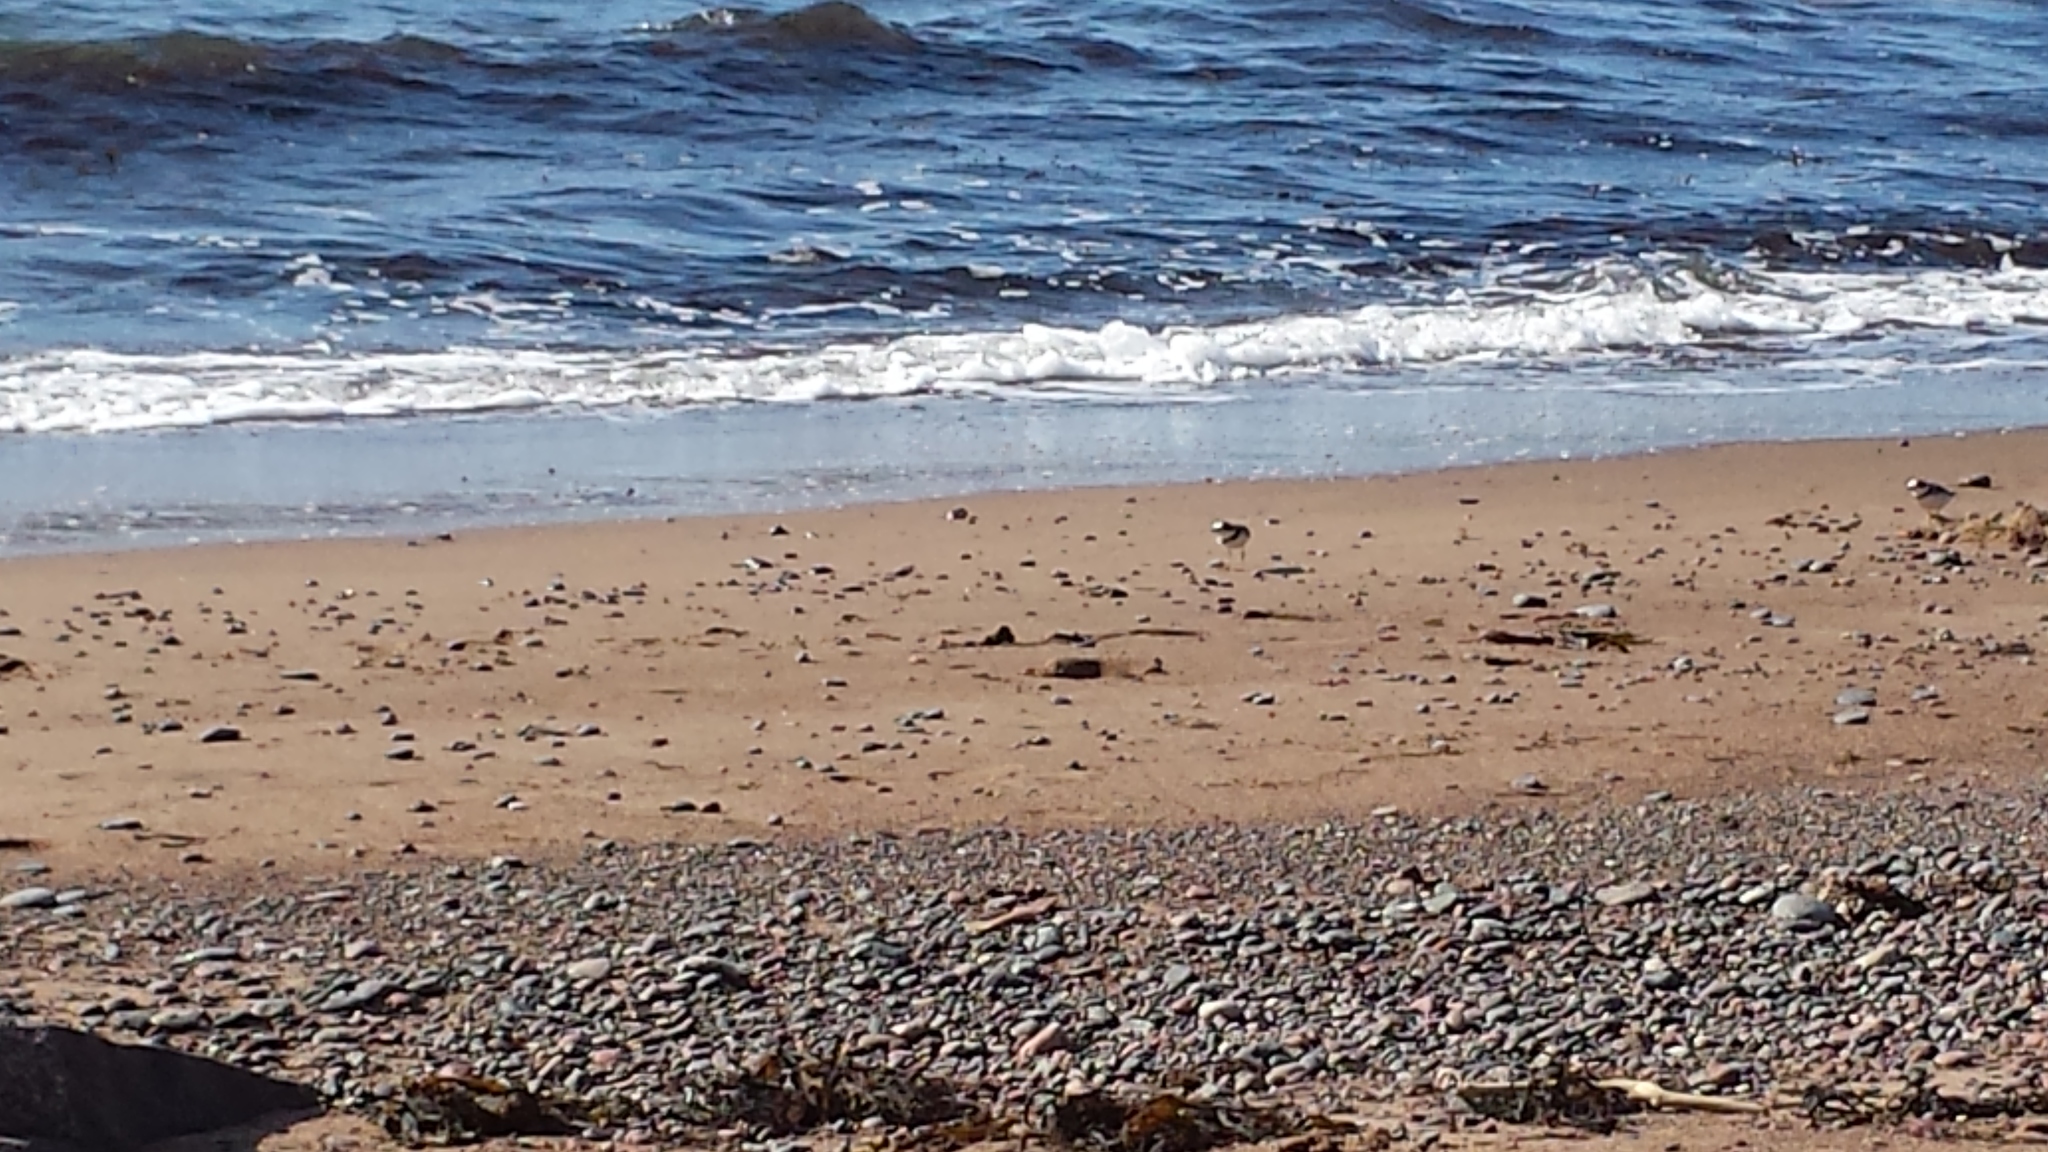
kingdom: Animalia
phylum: Chordata
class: Aves
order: Charadriiformes
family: Charadriidae
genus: Charadrius
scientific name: Charadrius semipalmatus
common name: Semipalmated plover
